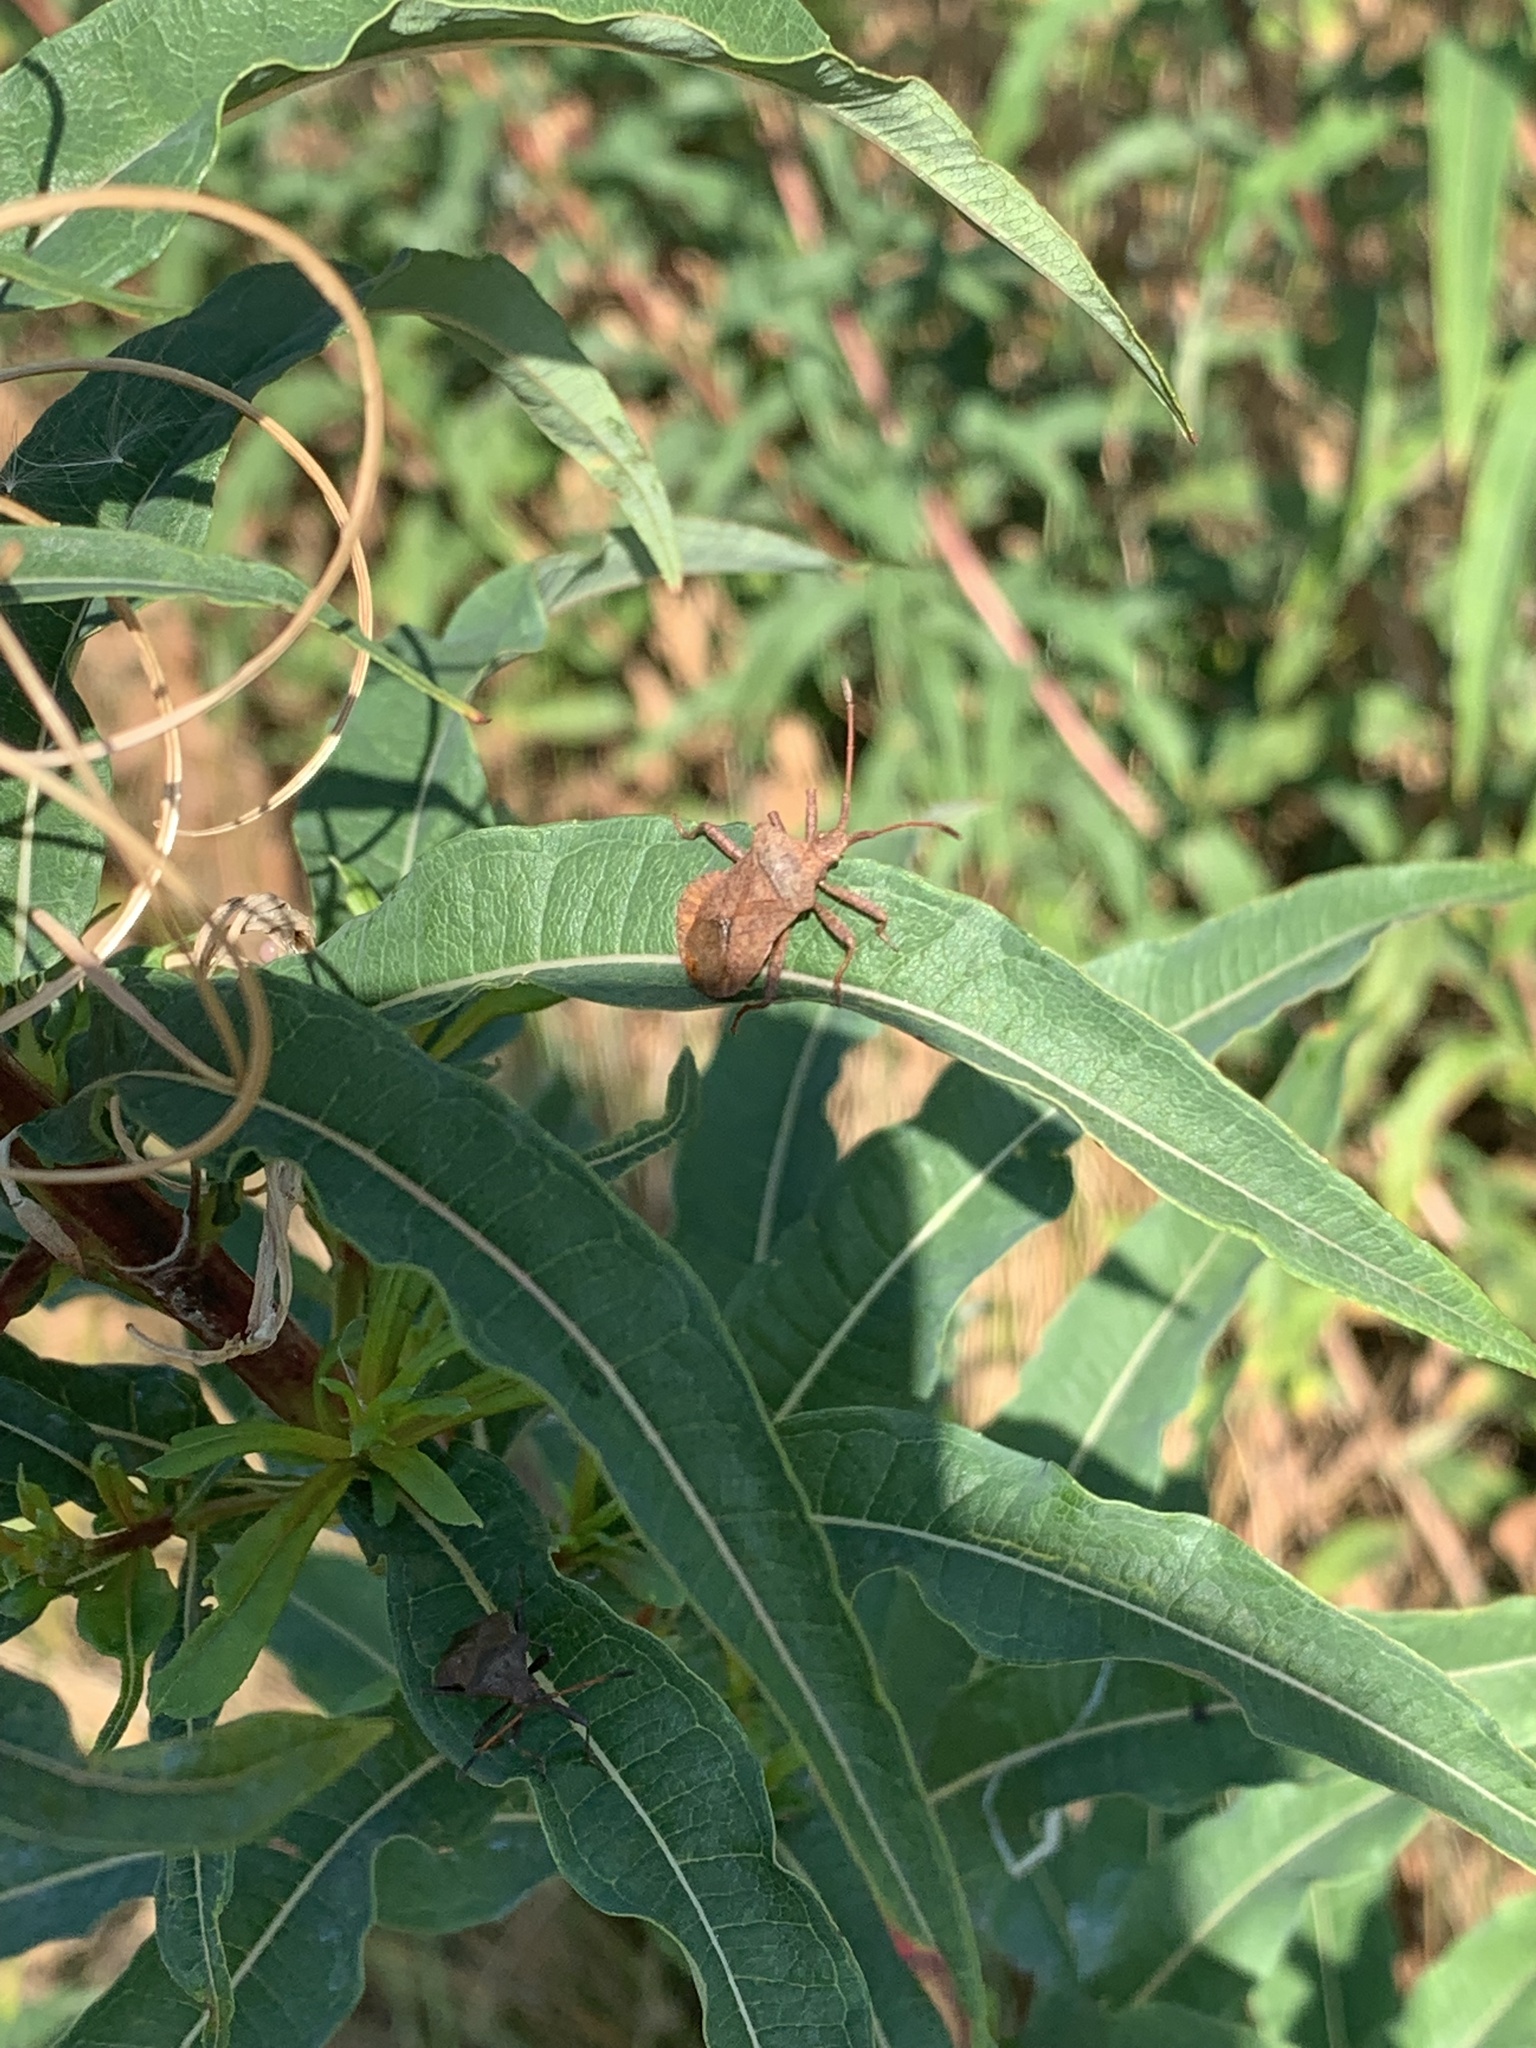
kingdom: Animalia
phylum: Arthropoda
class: Insecta
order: Hemiptera
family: Coreidae
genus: Coreus
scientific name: Coreus marginatus
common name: Dock bug
